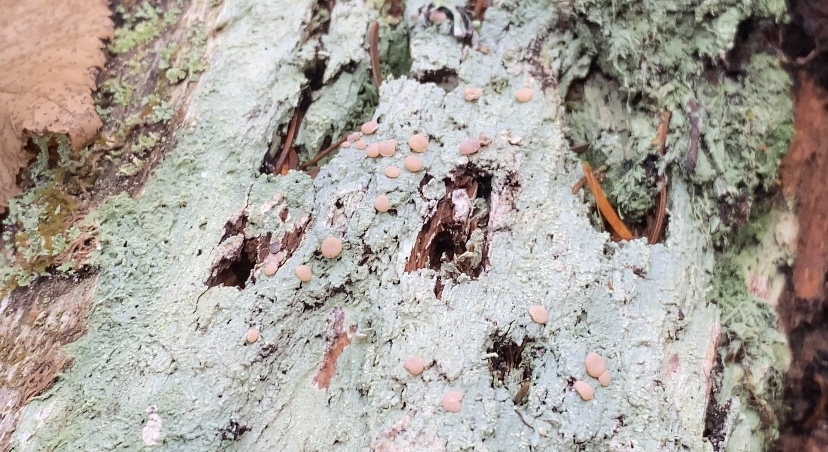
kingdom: Fungi
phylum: Ascomycota
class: Lecanoromycetes
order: Pertusariales
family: Icmadophilaceae
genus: Icmadophila
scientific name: Icmadophila ericetorum
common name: Candy lichen
